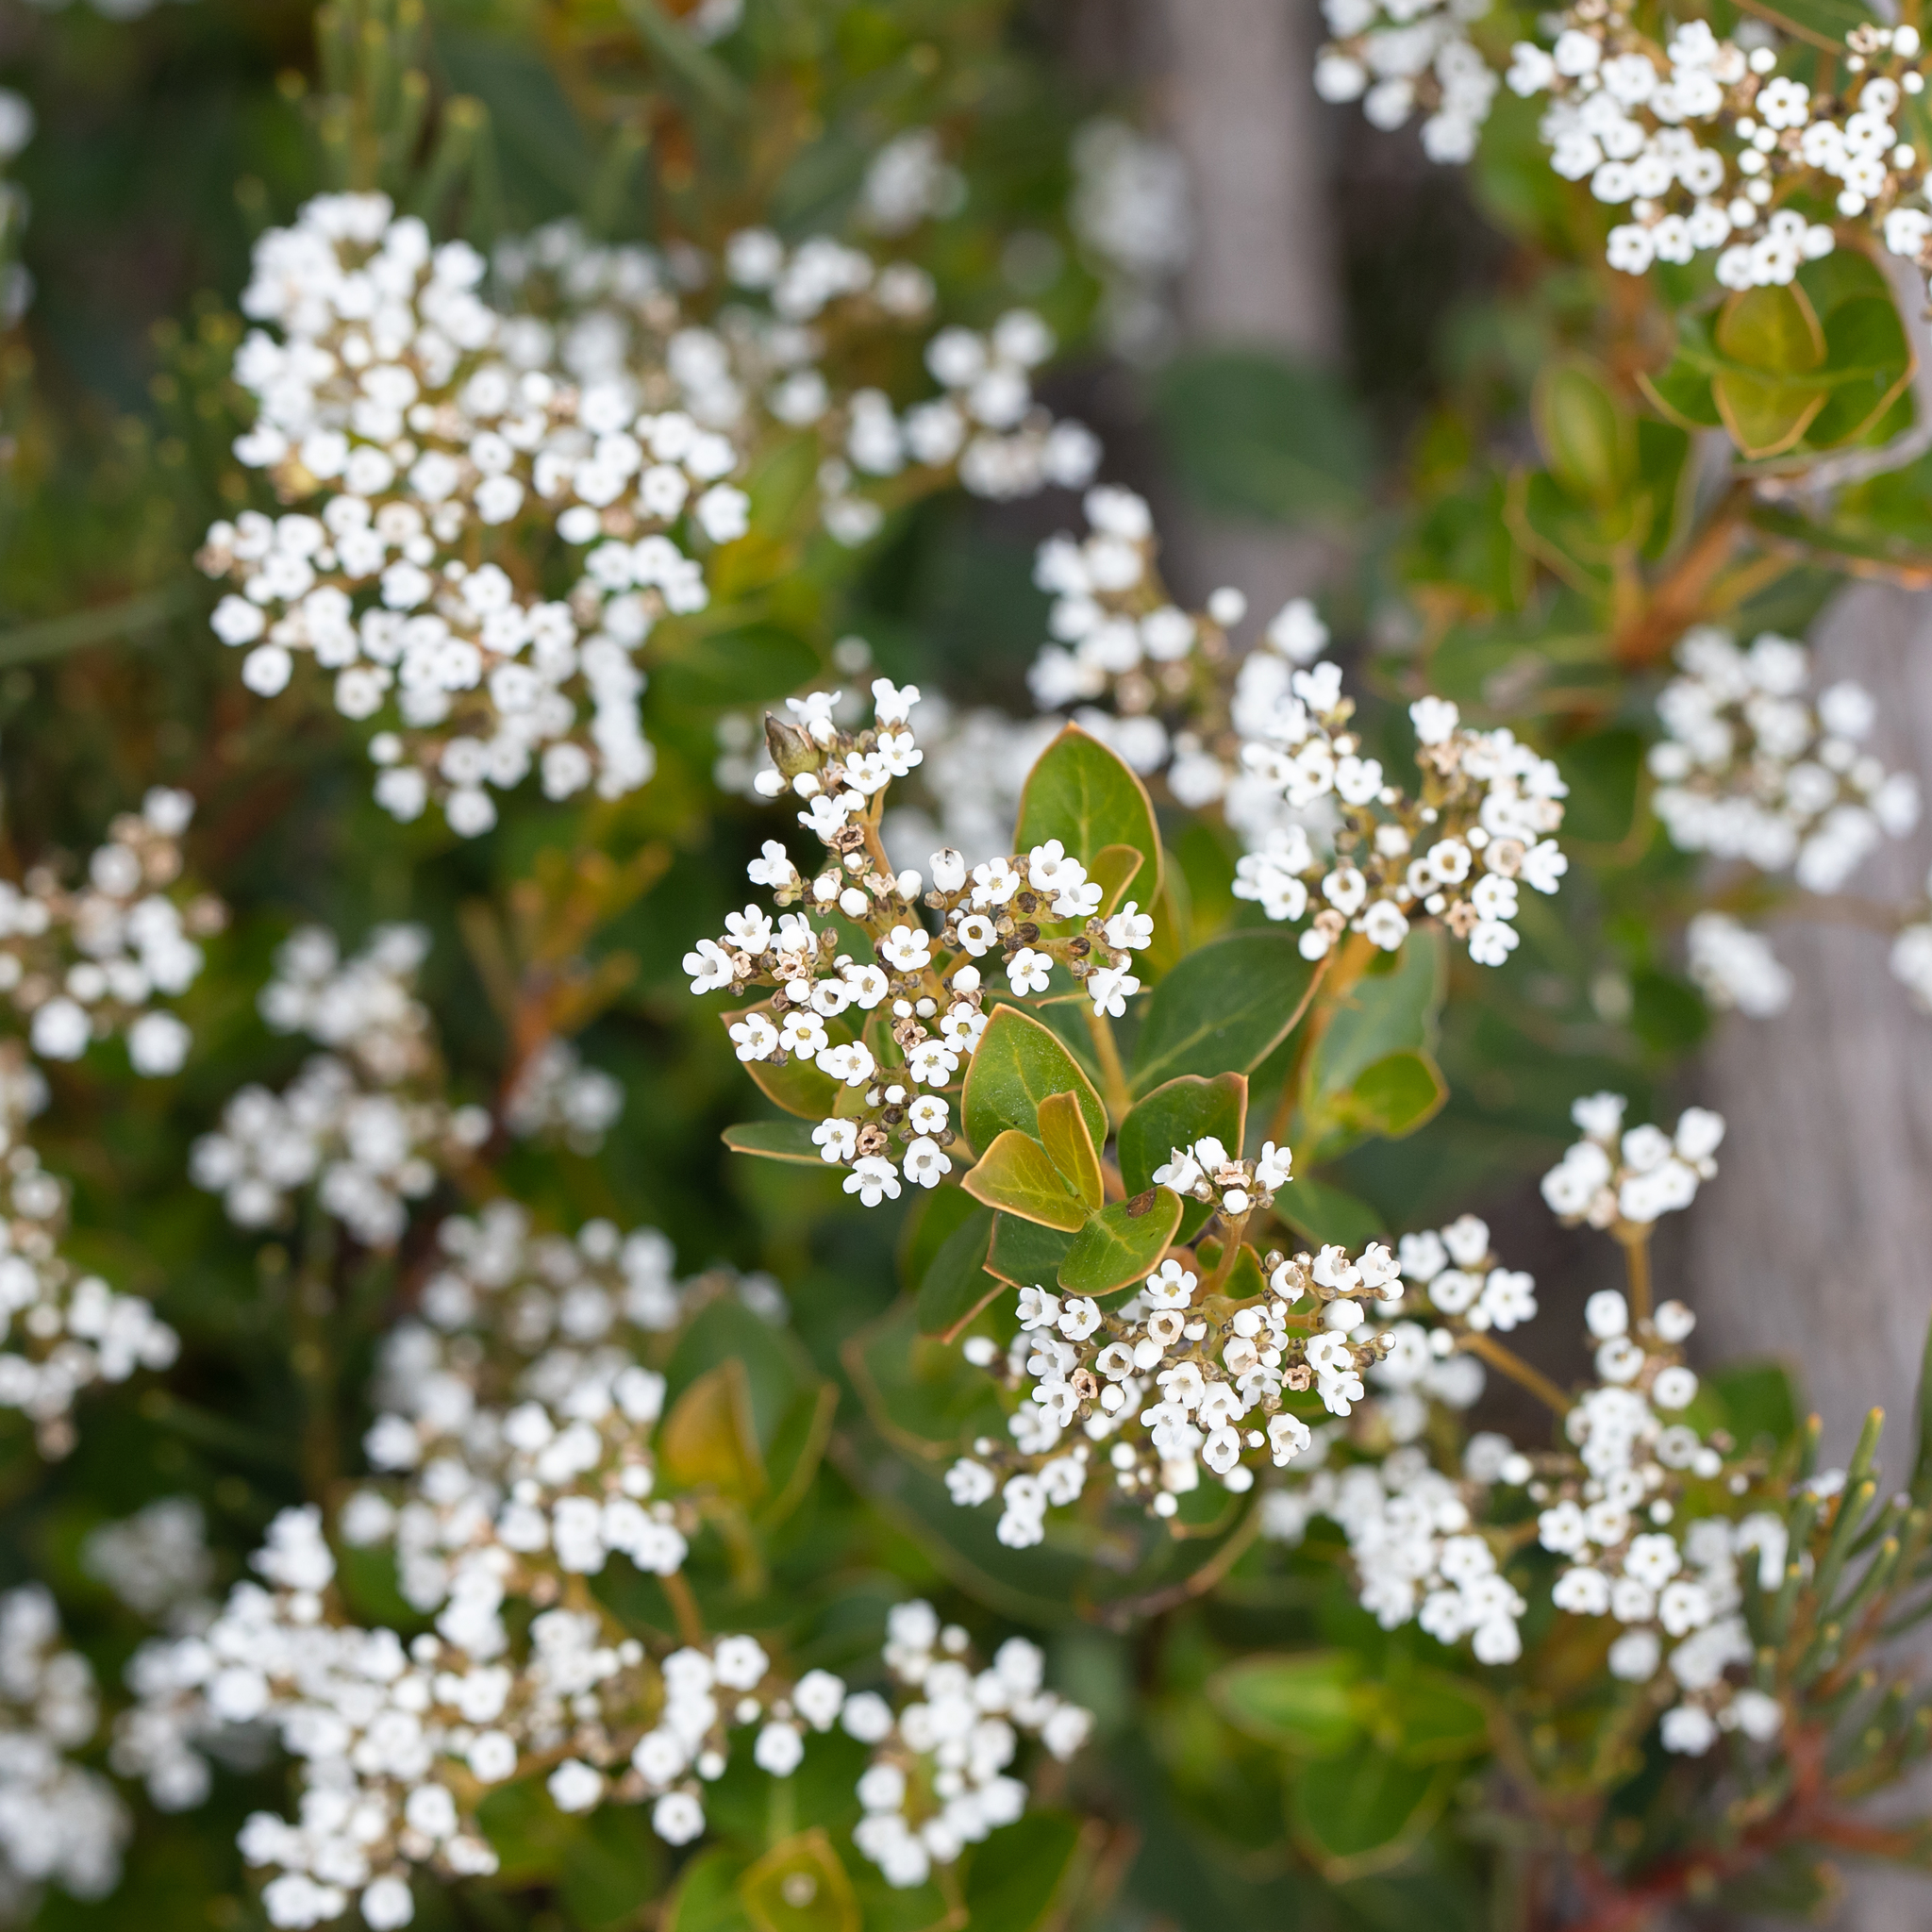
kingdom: Plantae
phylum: Tracheophyta
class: Magnoliopsida
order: Gentianales
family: Loganiaceae
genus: Logania
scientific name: Logania ovata
